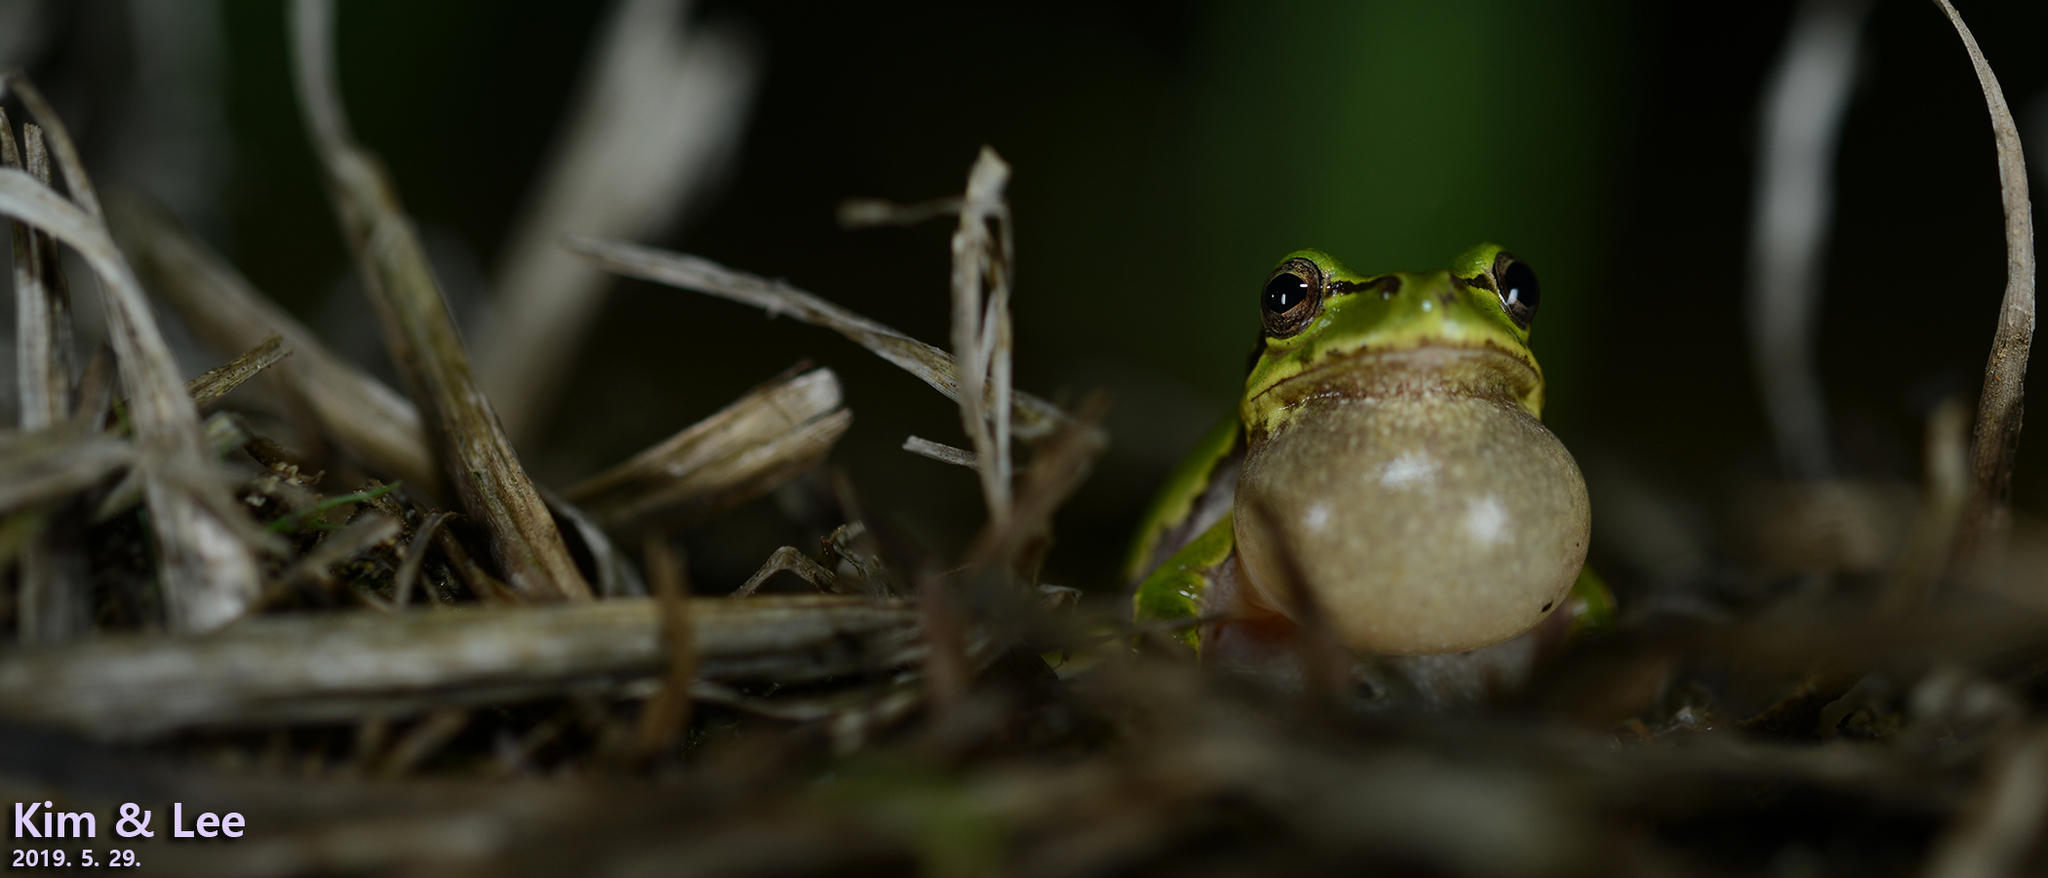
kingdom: Animalia
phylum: Chordata
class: Amphibia
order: Anura
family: Hylidae
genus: Dryophytes
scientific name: Dryophytes japonicus
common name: Japanese treefrog
